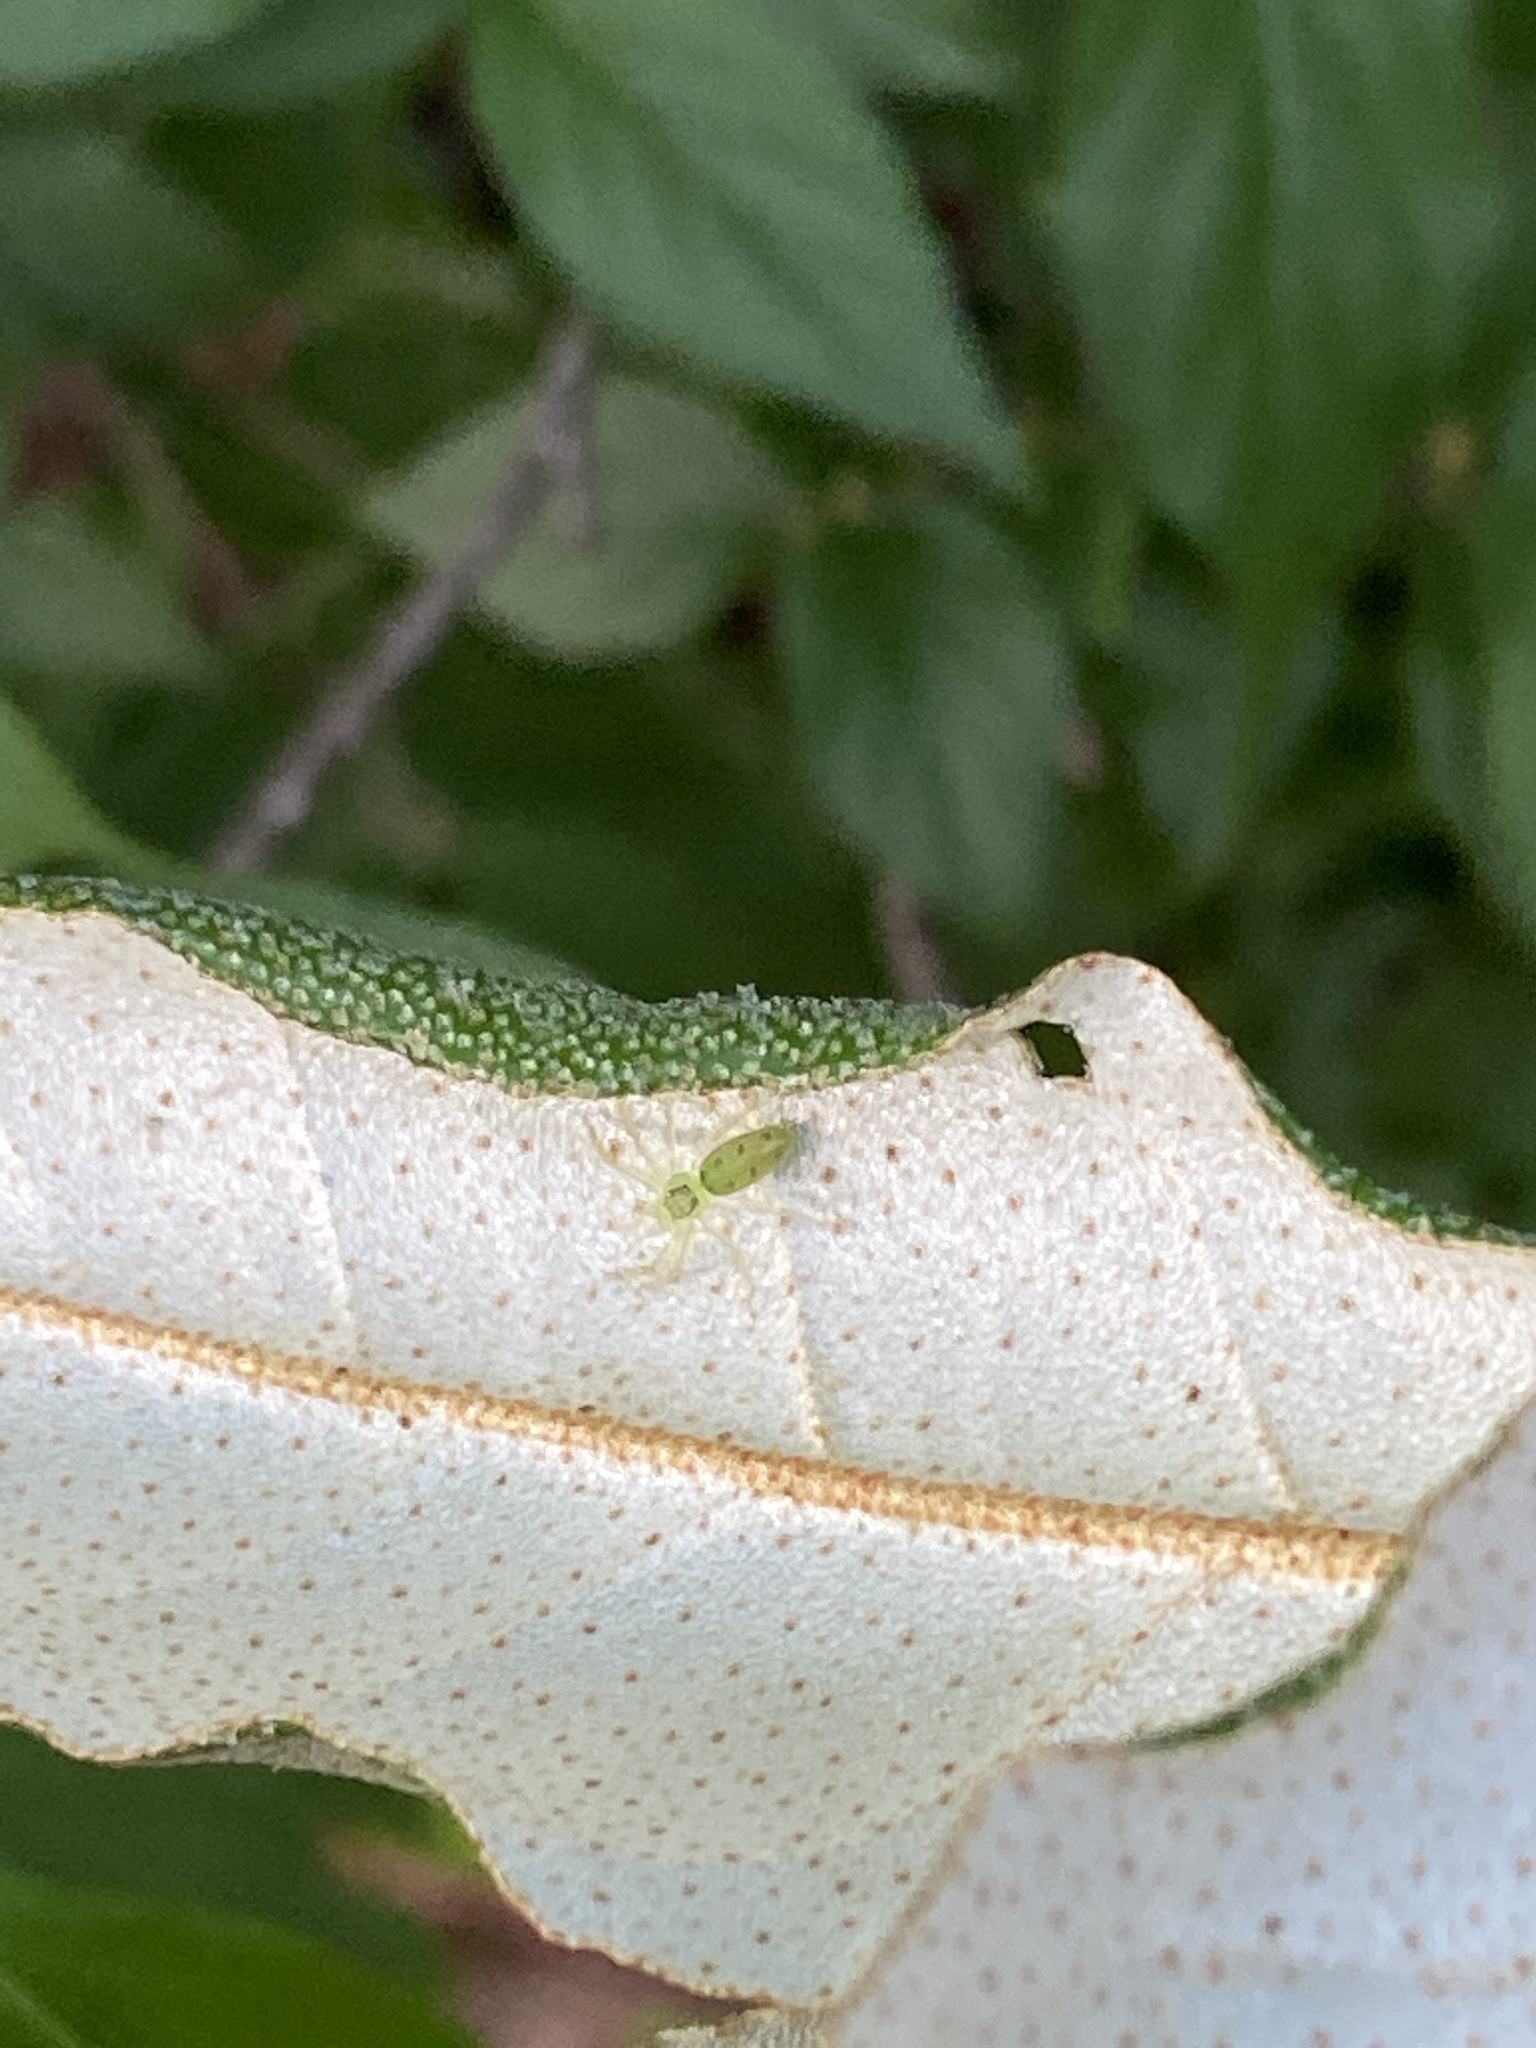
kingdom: Animalia
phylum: Arthropoda
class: Arachnida
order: Araneae
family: Salticidae
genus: Lyssomanes
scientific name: Lyssomanes viridis
